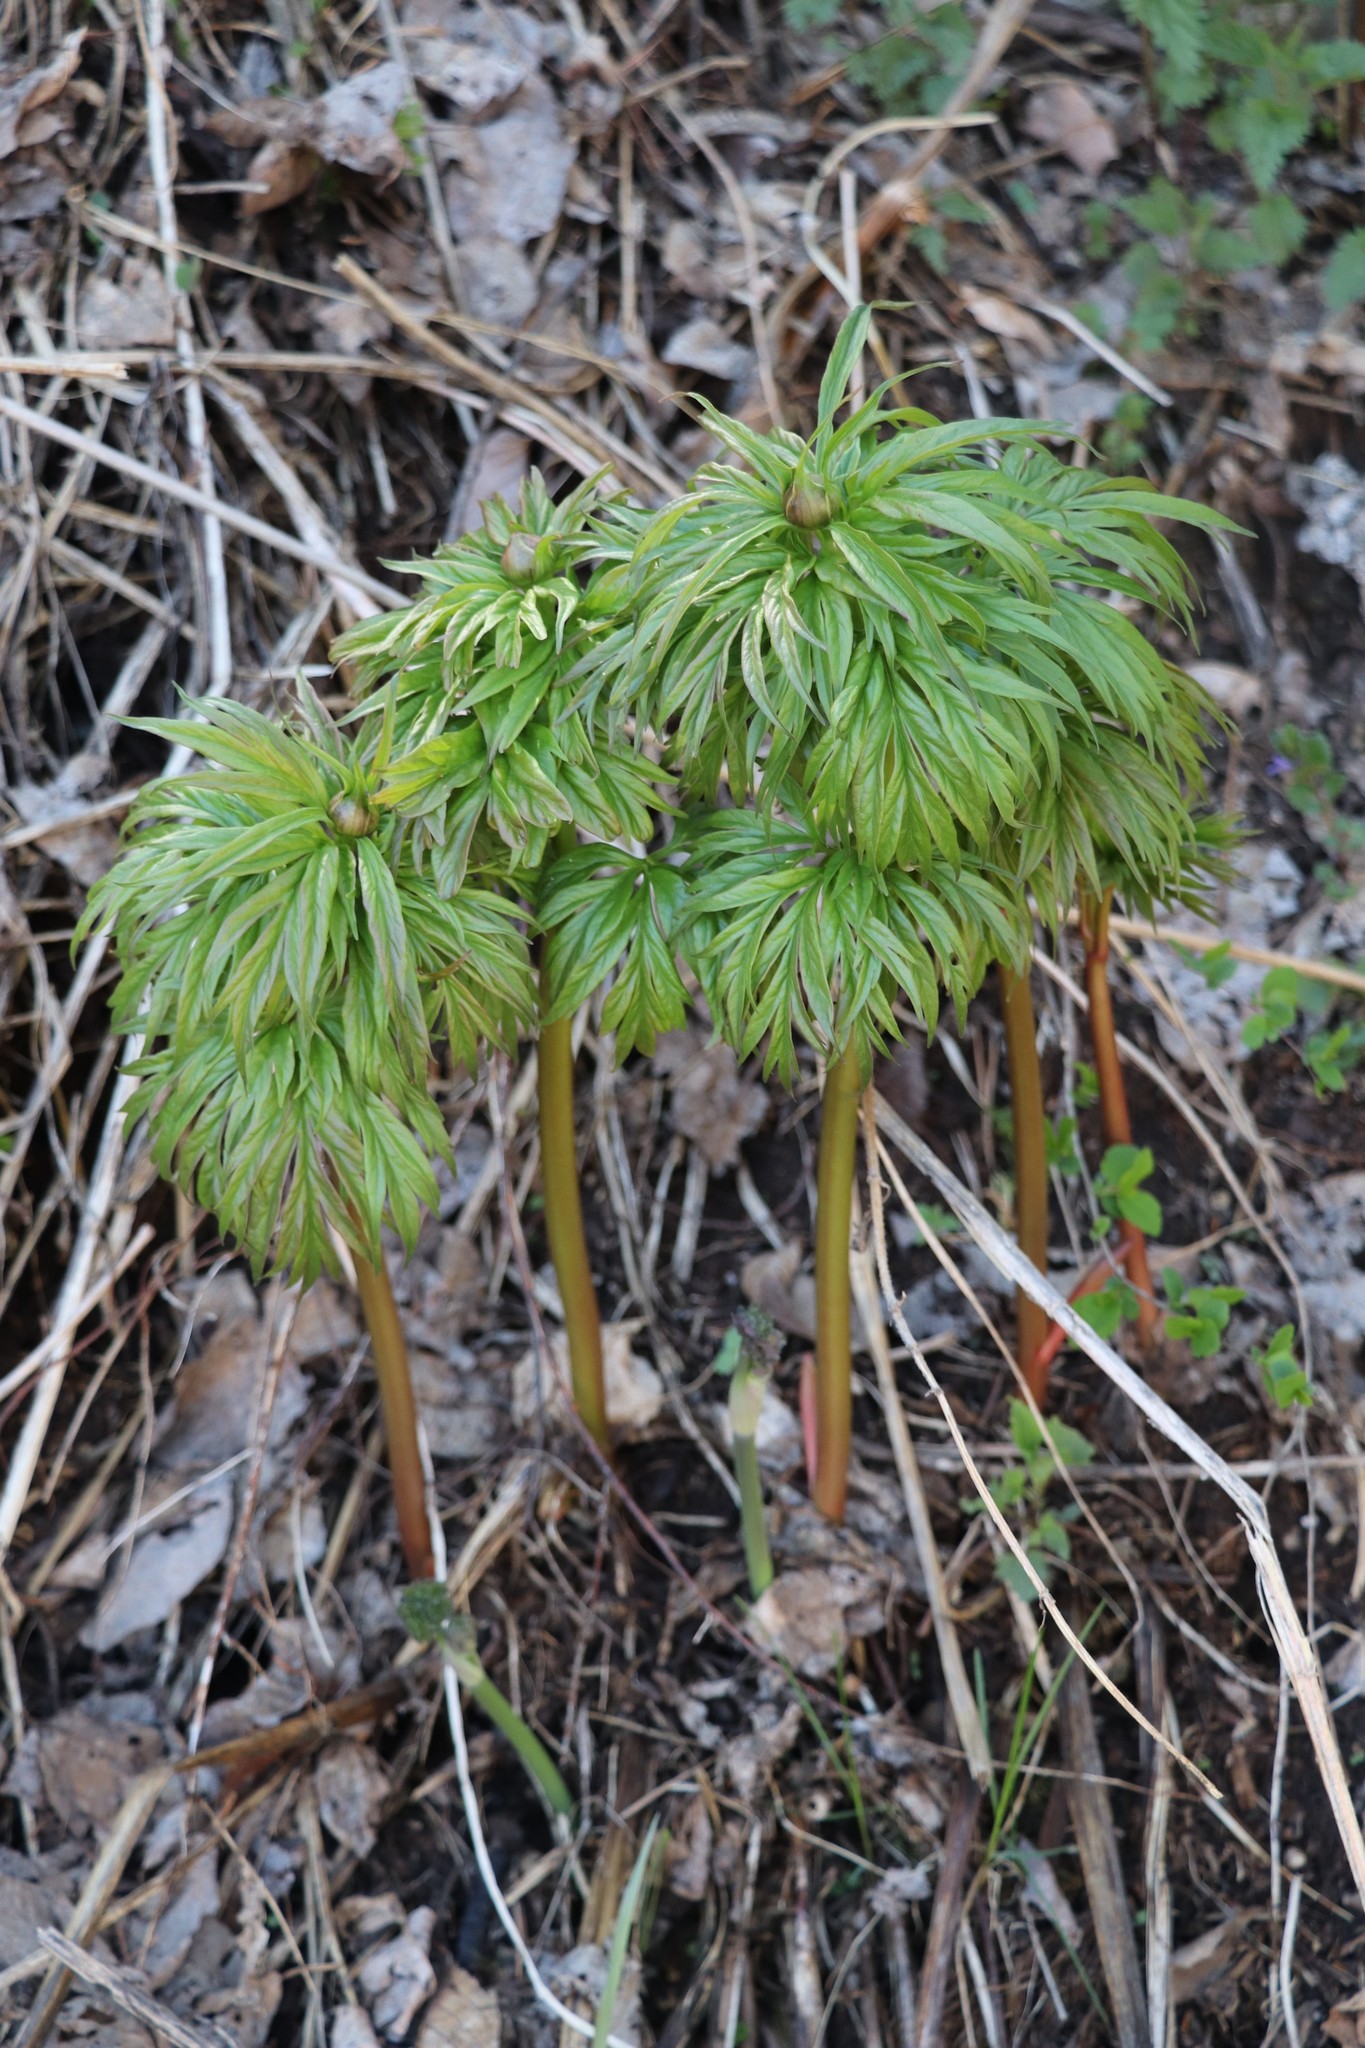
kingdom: Plantae
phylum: Tracheophyta
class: Magnoliopsida
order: Saxifragales
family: Paeoniaceae
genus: Paeonia
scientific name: Paeonia anomala
